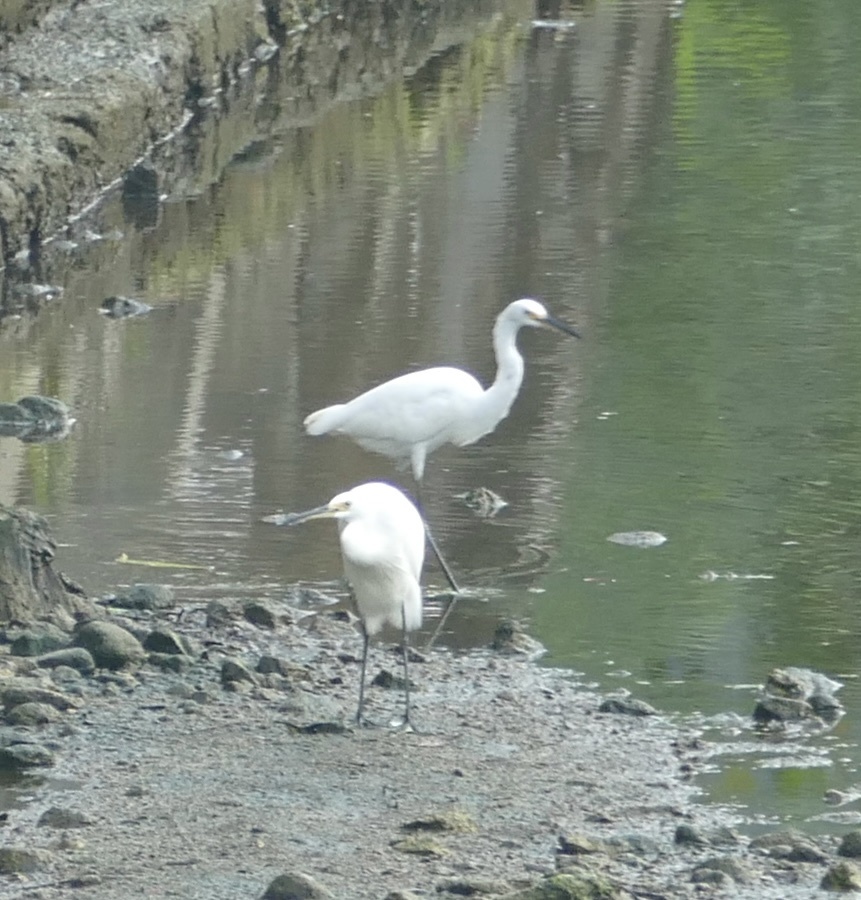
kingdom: Animalia
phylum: Chordata
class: Aves
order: Pelecaniformes
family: Ardeidae
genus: Egretta
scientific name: Egretta garzetta
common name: Little egret
